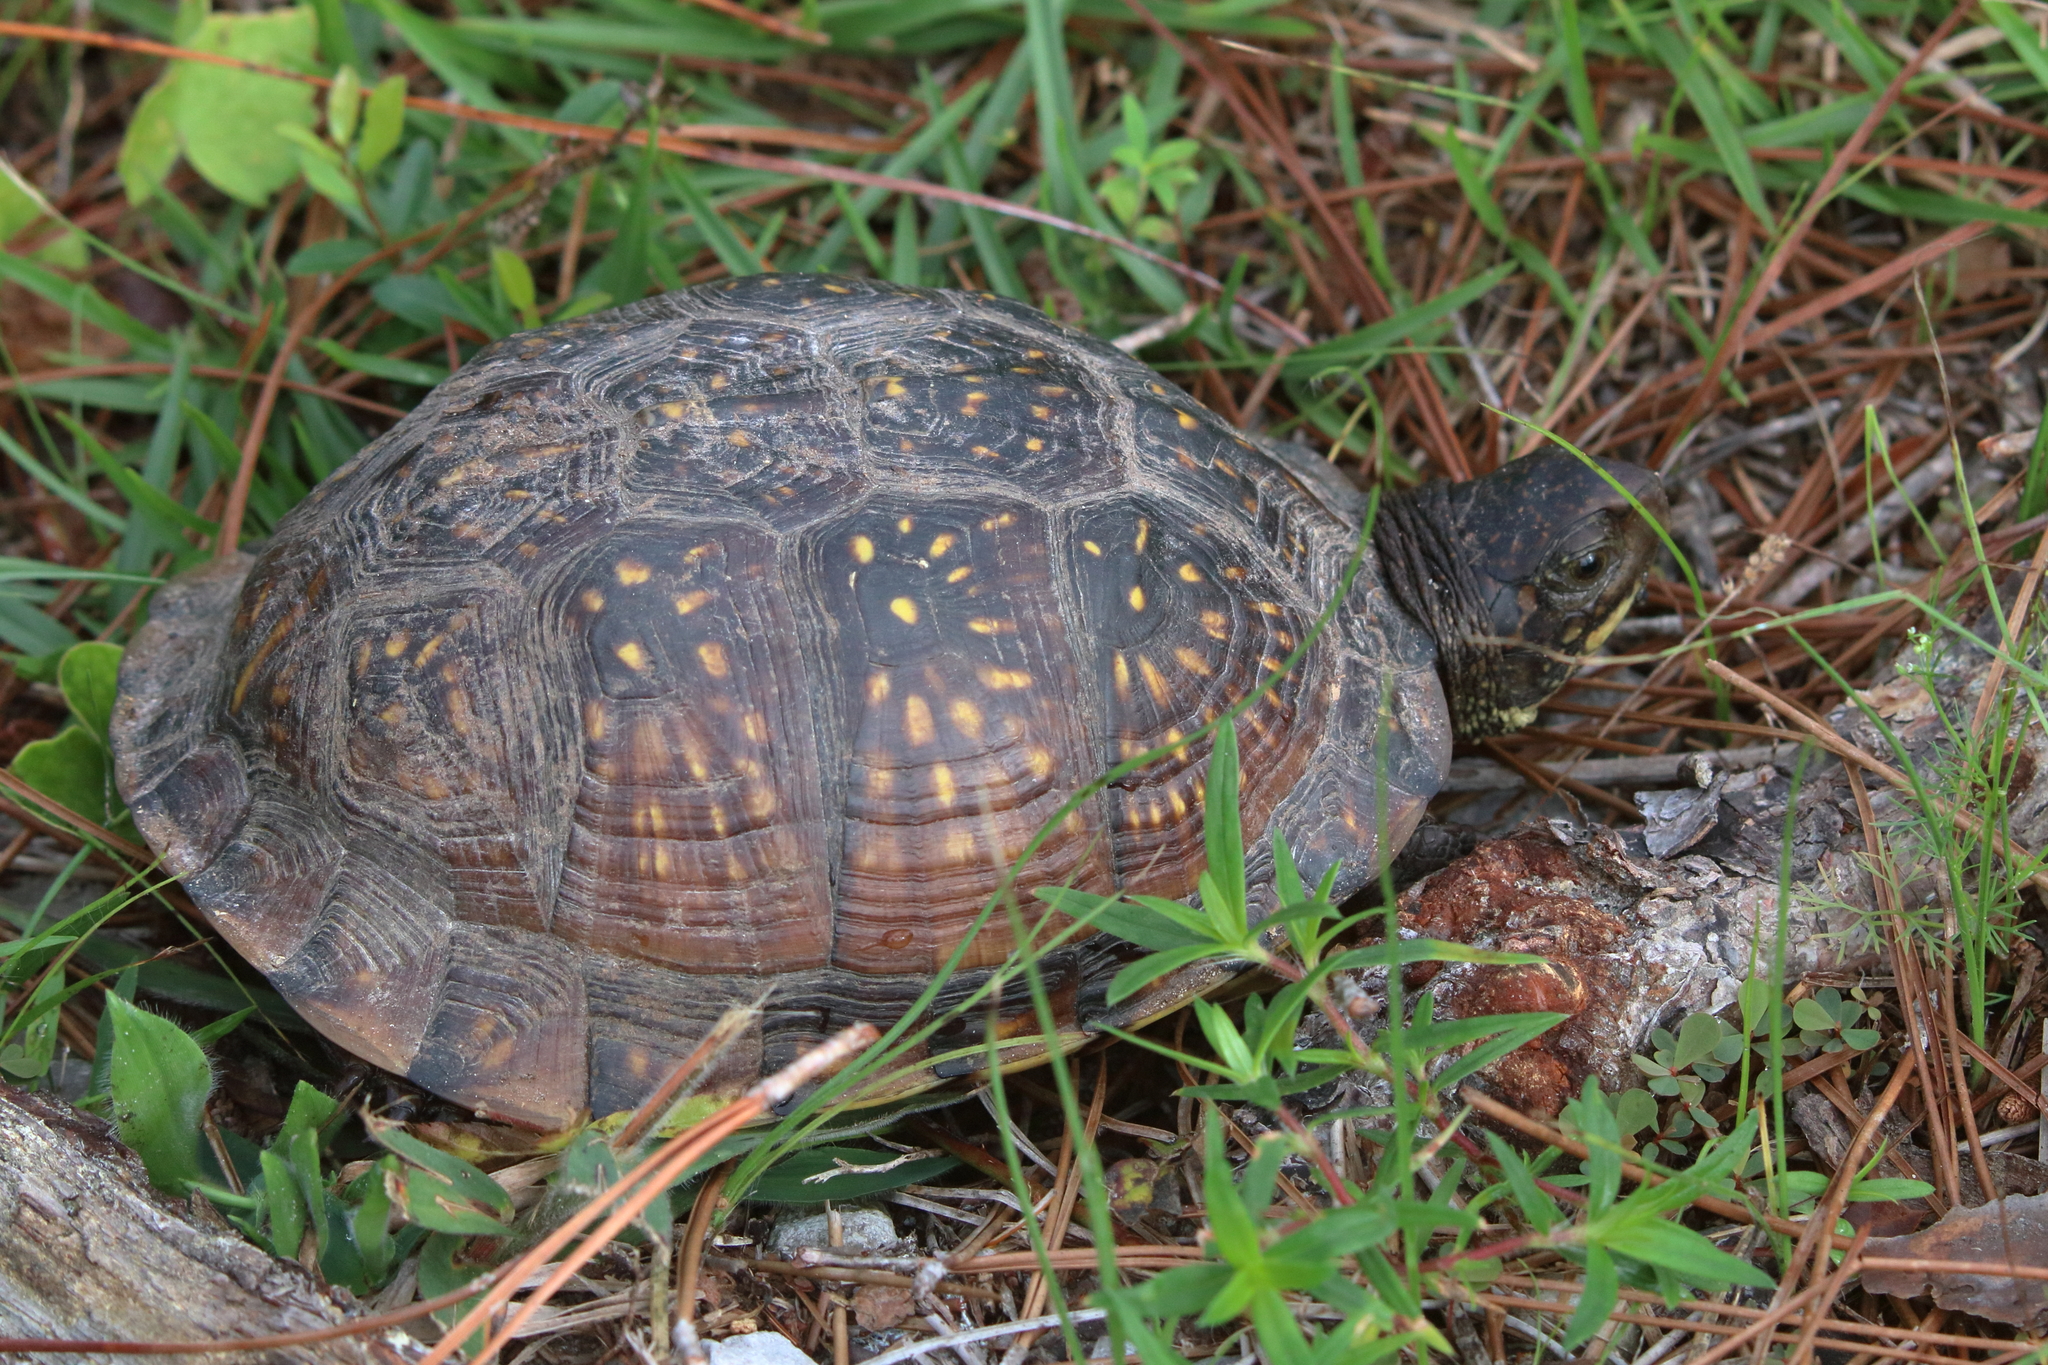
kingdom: Animalia
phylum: Chordata
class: Testudines
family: Emydidae
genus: Terrapene
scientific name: Terrapene carolina
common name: Common box turtle
